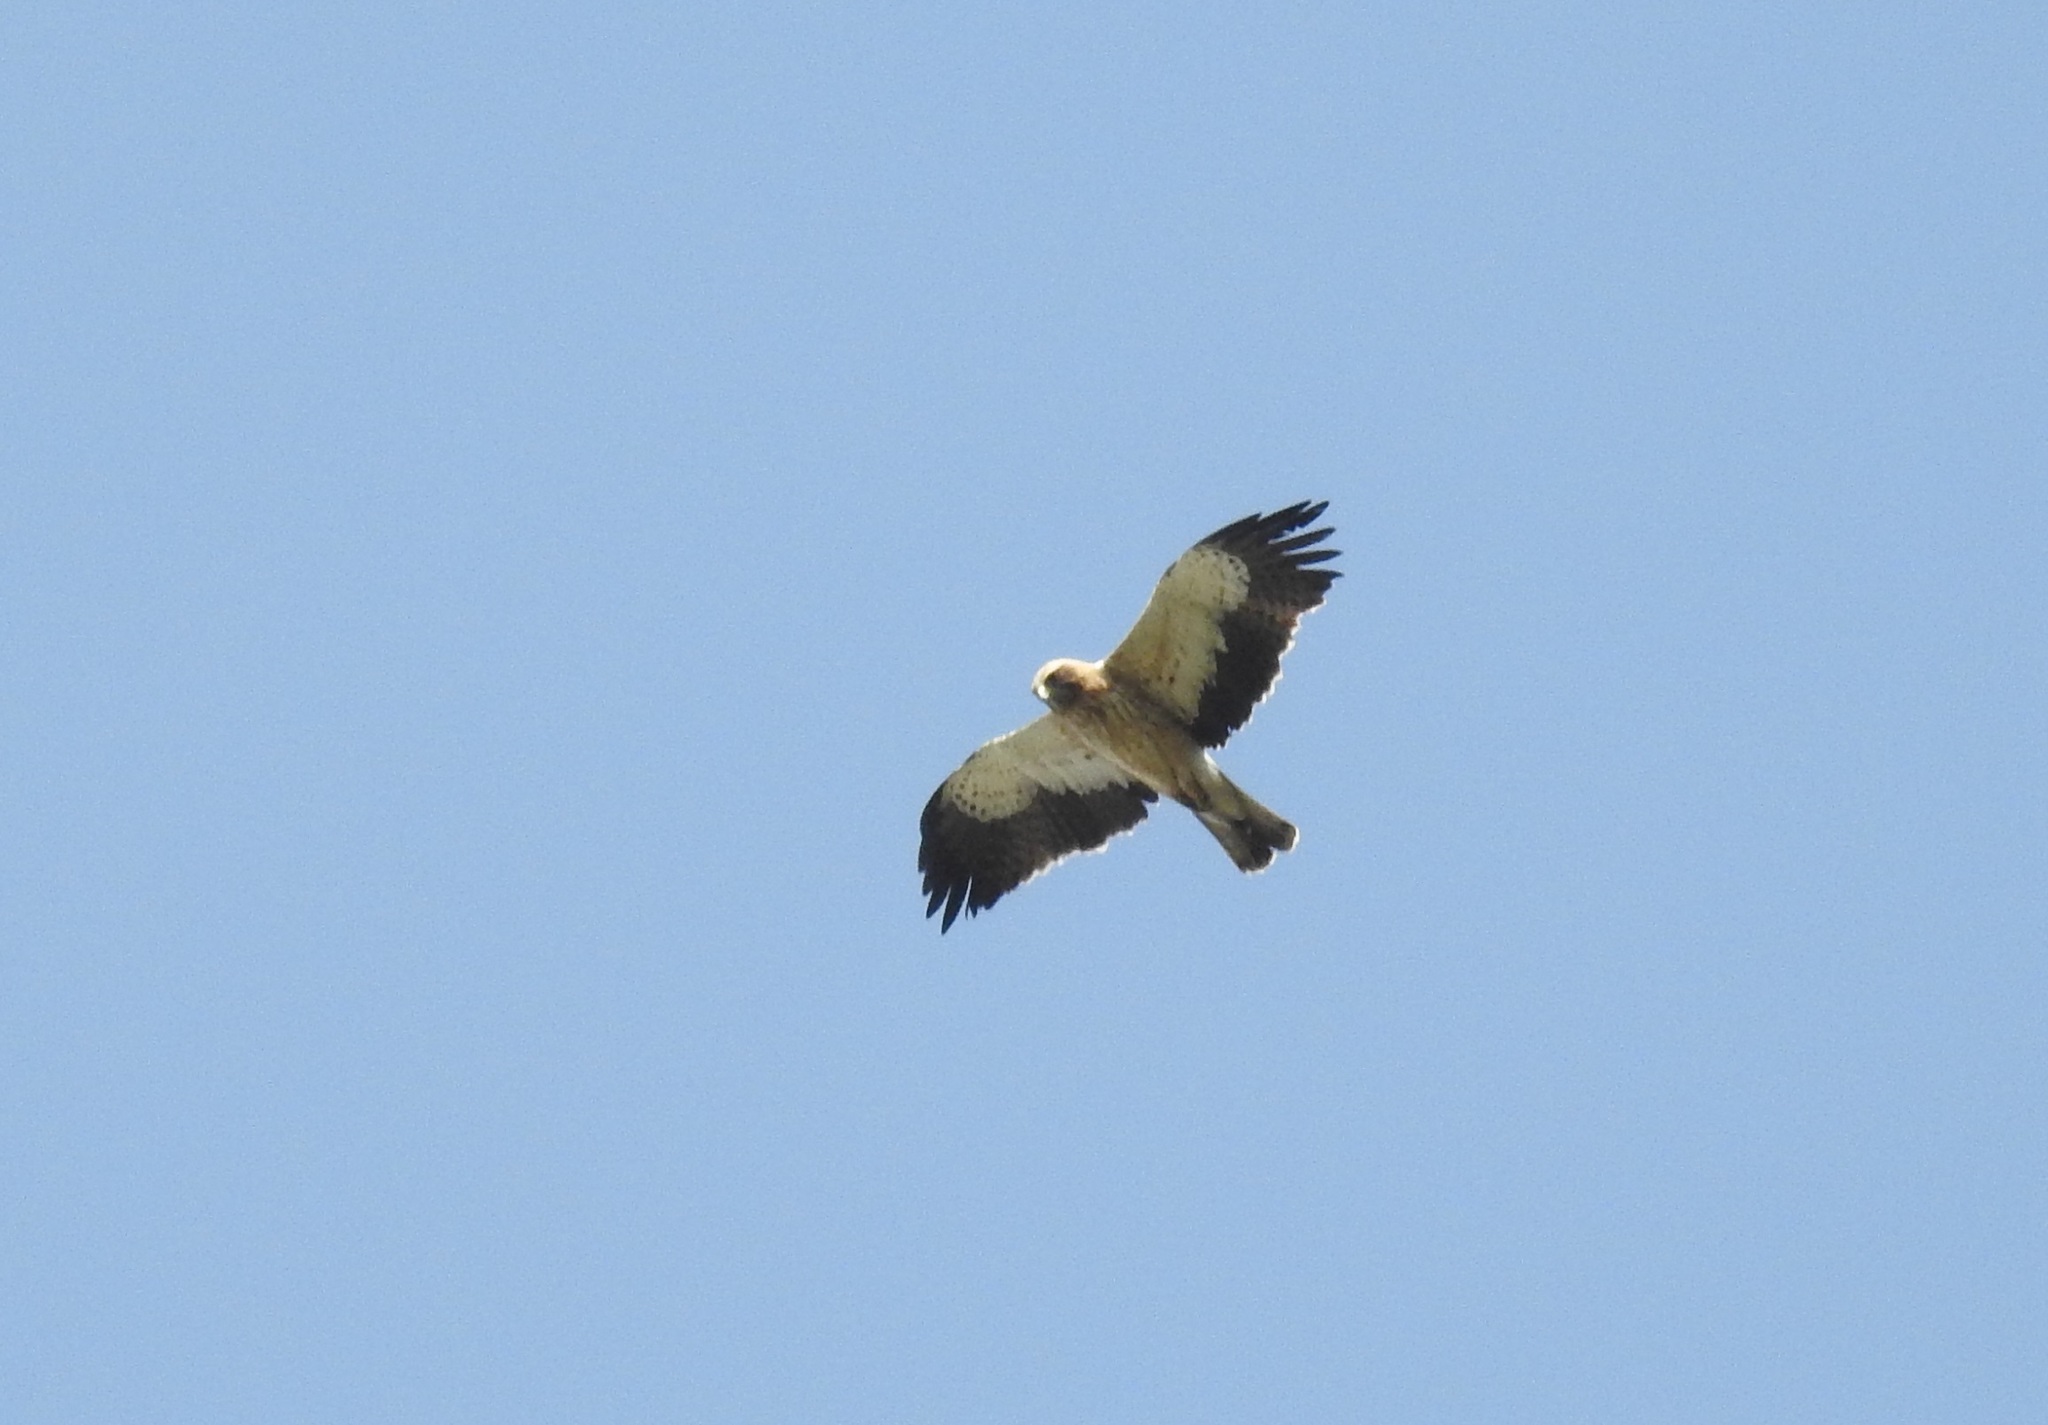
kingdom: Animalia
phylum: Chordata
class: Aves
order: Accipitriformes
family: Accipitridae
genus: Hieraaetus
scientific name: Hieraaetus pennatus
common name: Booted eagle
